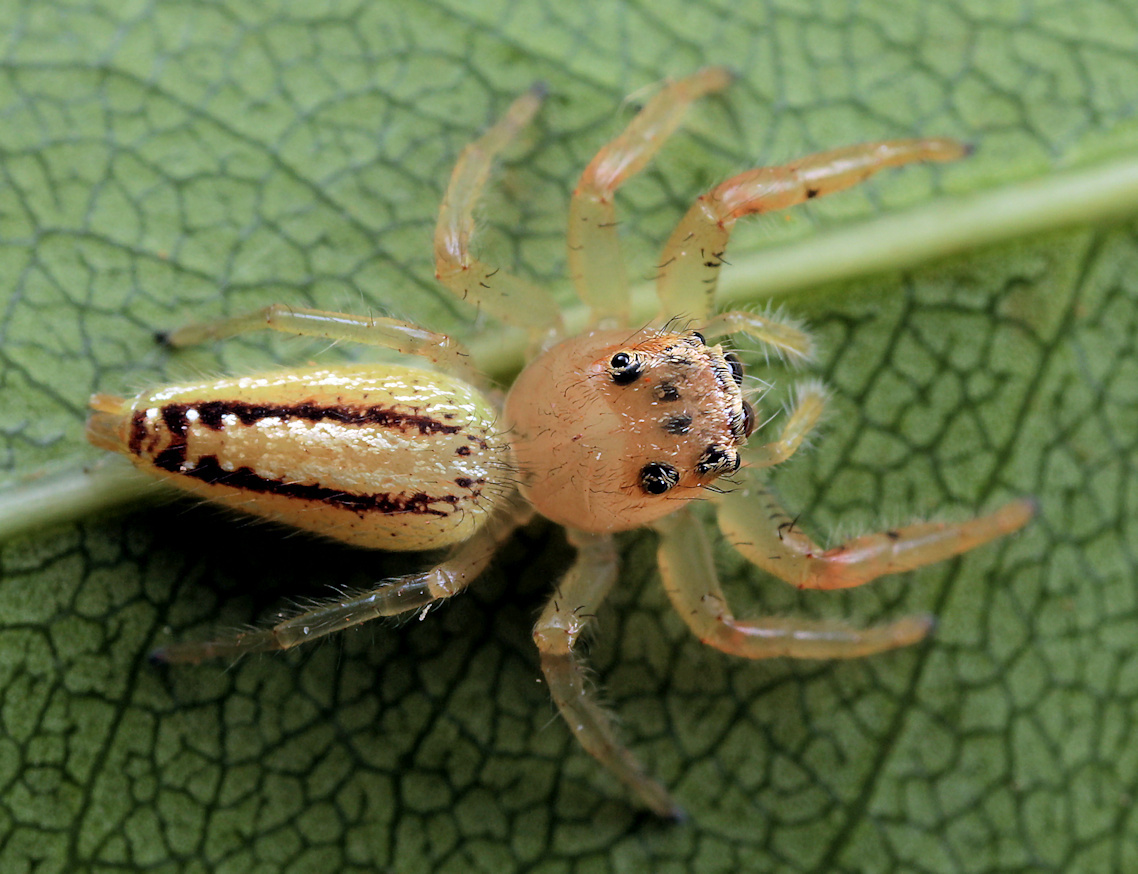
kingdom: Animalia
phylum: Arthropoda
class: Arachnida
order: Araneae
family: Salticidae
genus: Thyene
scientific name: Thyene ogdeni
